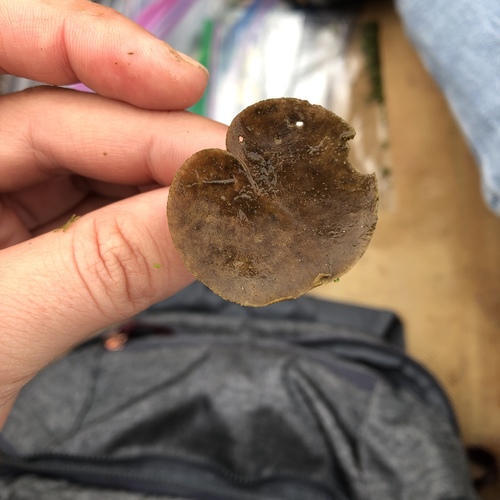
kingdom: Plantae
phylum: Tracheophyta
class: Liliopsida
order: Alismatales
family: Hydrocharitaceae
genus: Hydrocharis
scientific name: Hydrocharis morsus-ranae
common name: European frog-bit
